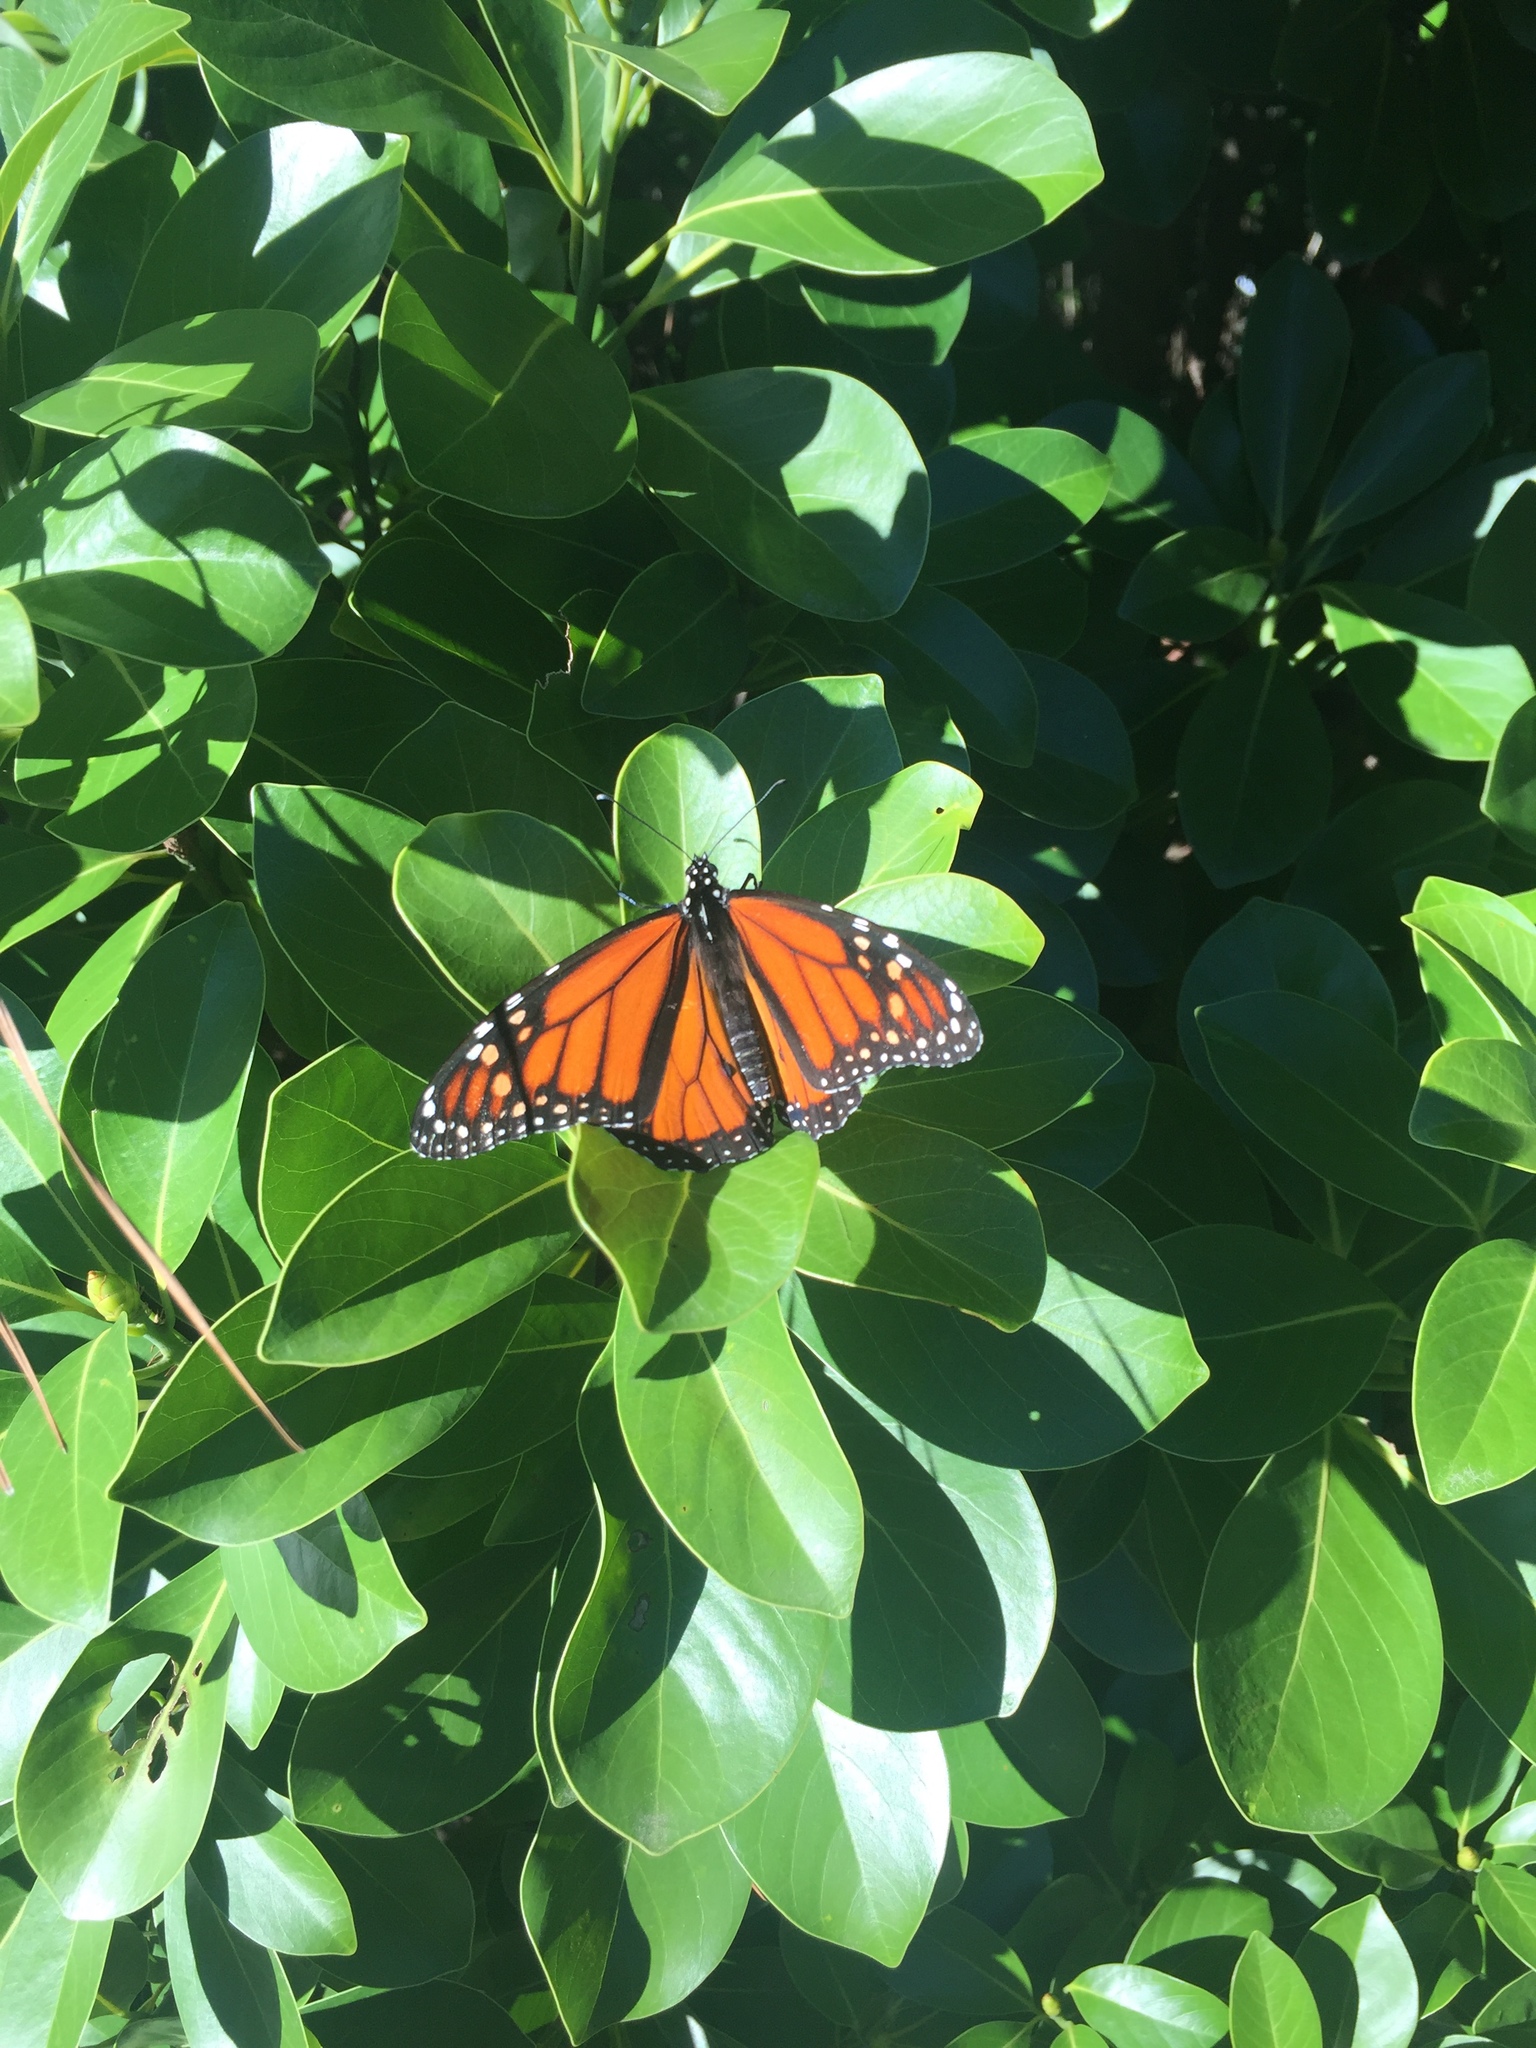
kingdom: Animalia
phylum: Arthropoda
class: Insecta
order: Lepidoptera
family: Nymphalidae
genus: Danaus
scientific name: Danaus plexippus
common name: Monarch
